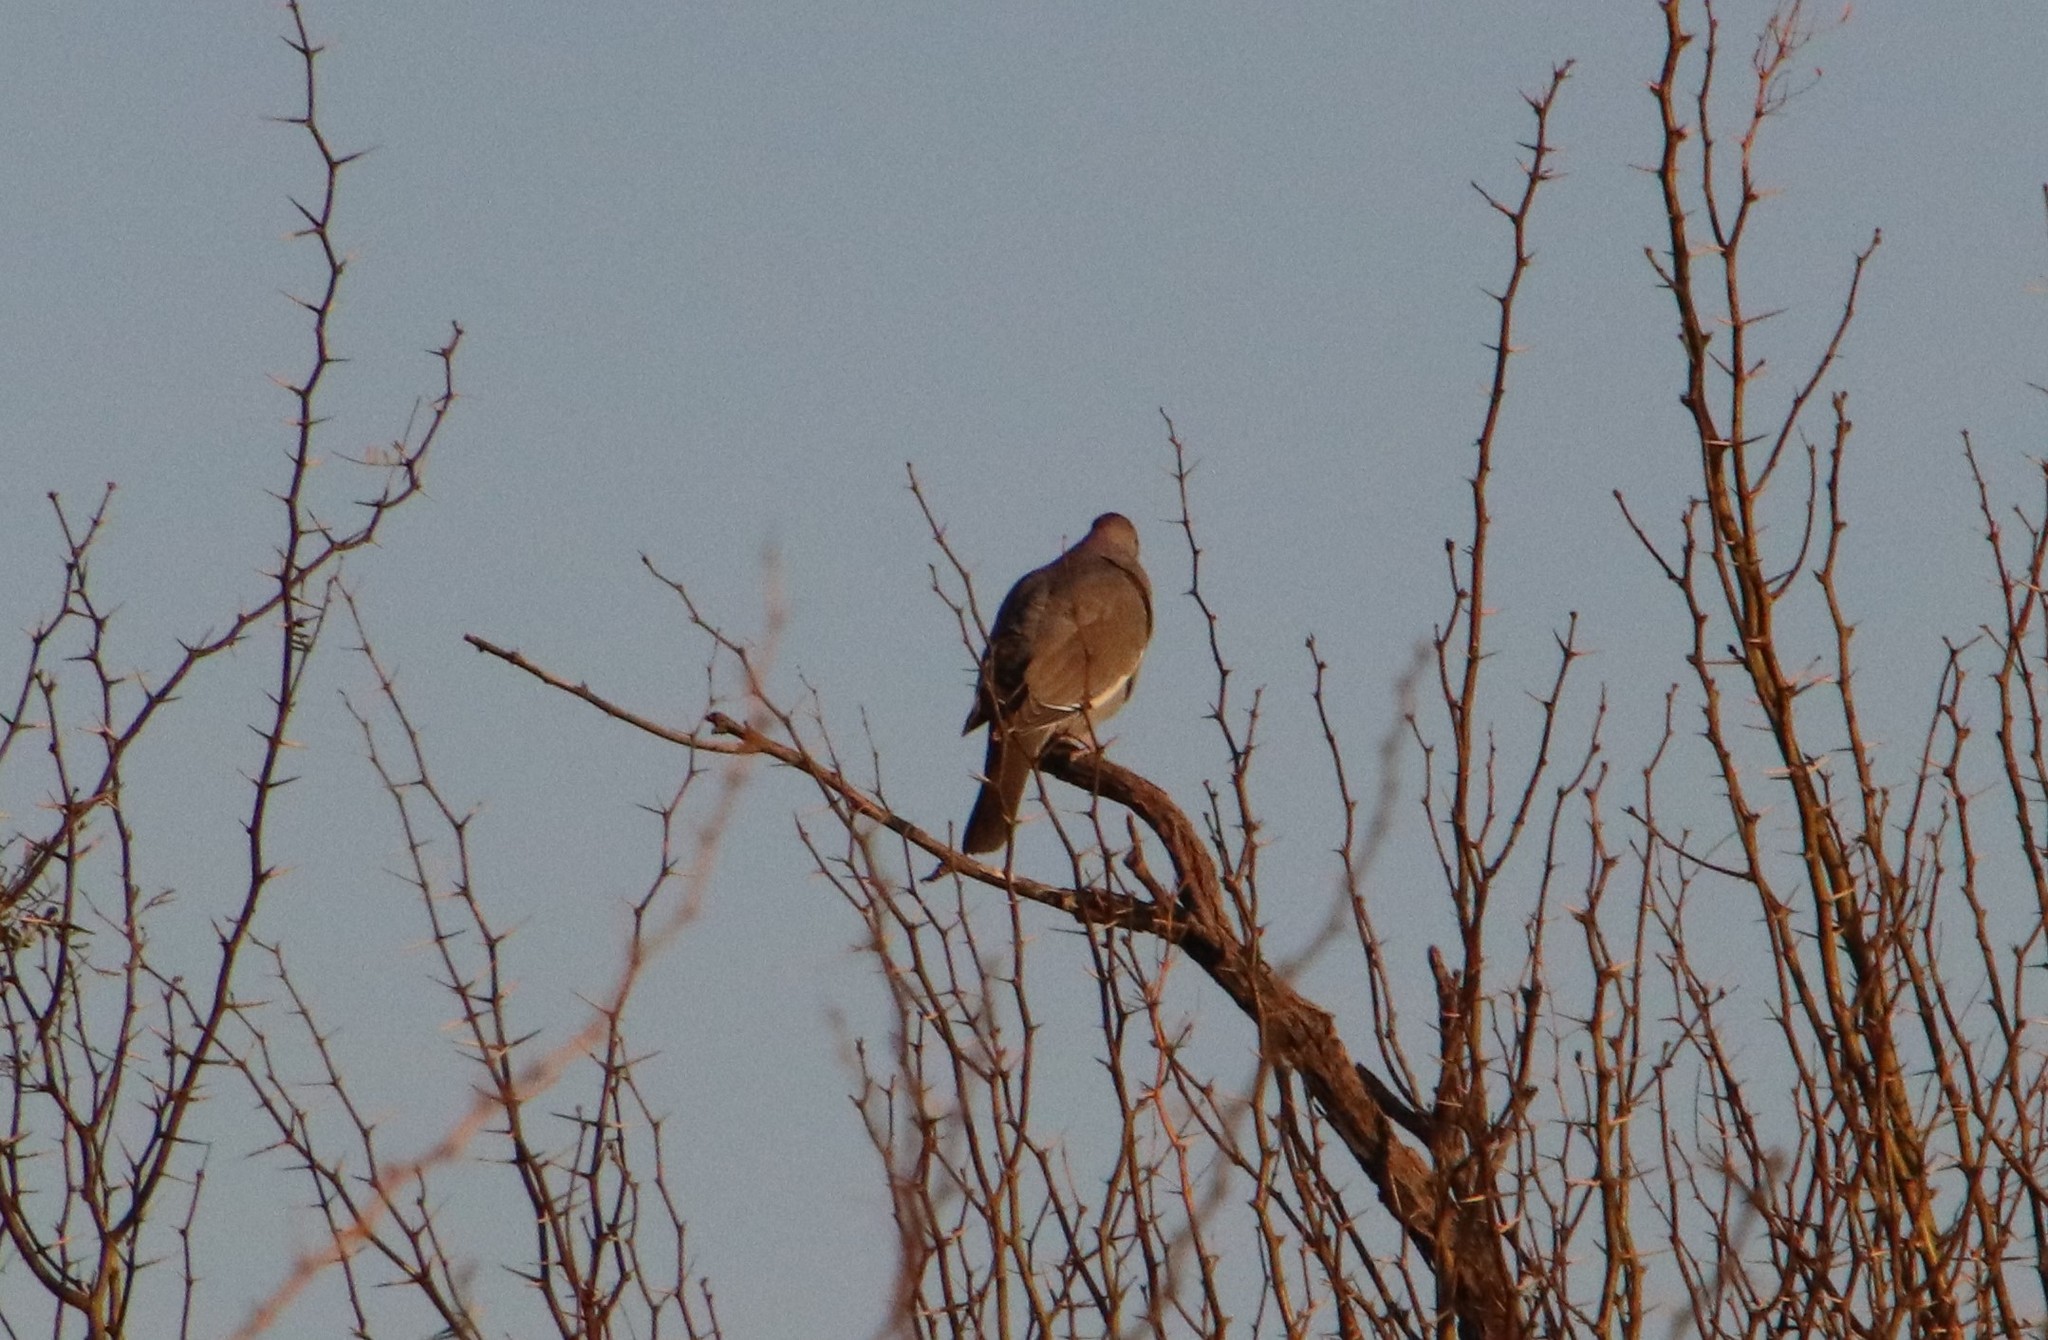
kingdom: Animalia
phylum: Chordata
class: Aves
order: Columbiformes
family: Columbidae
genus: Zenaida
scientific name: Zenaida asiatica
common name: White-winged dove
